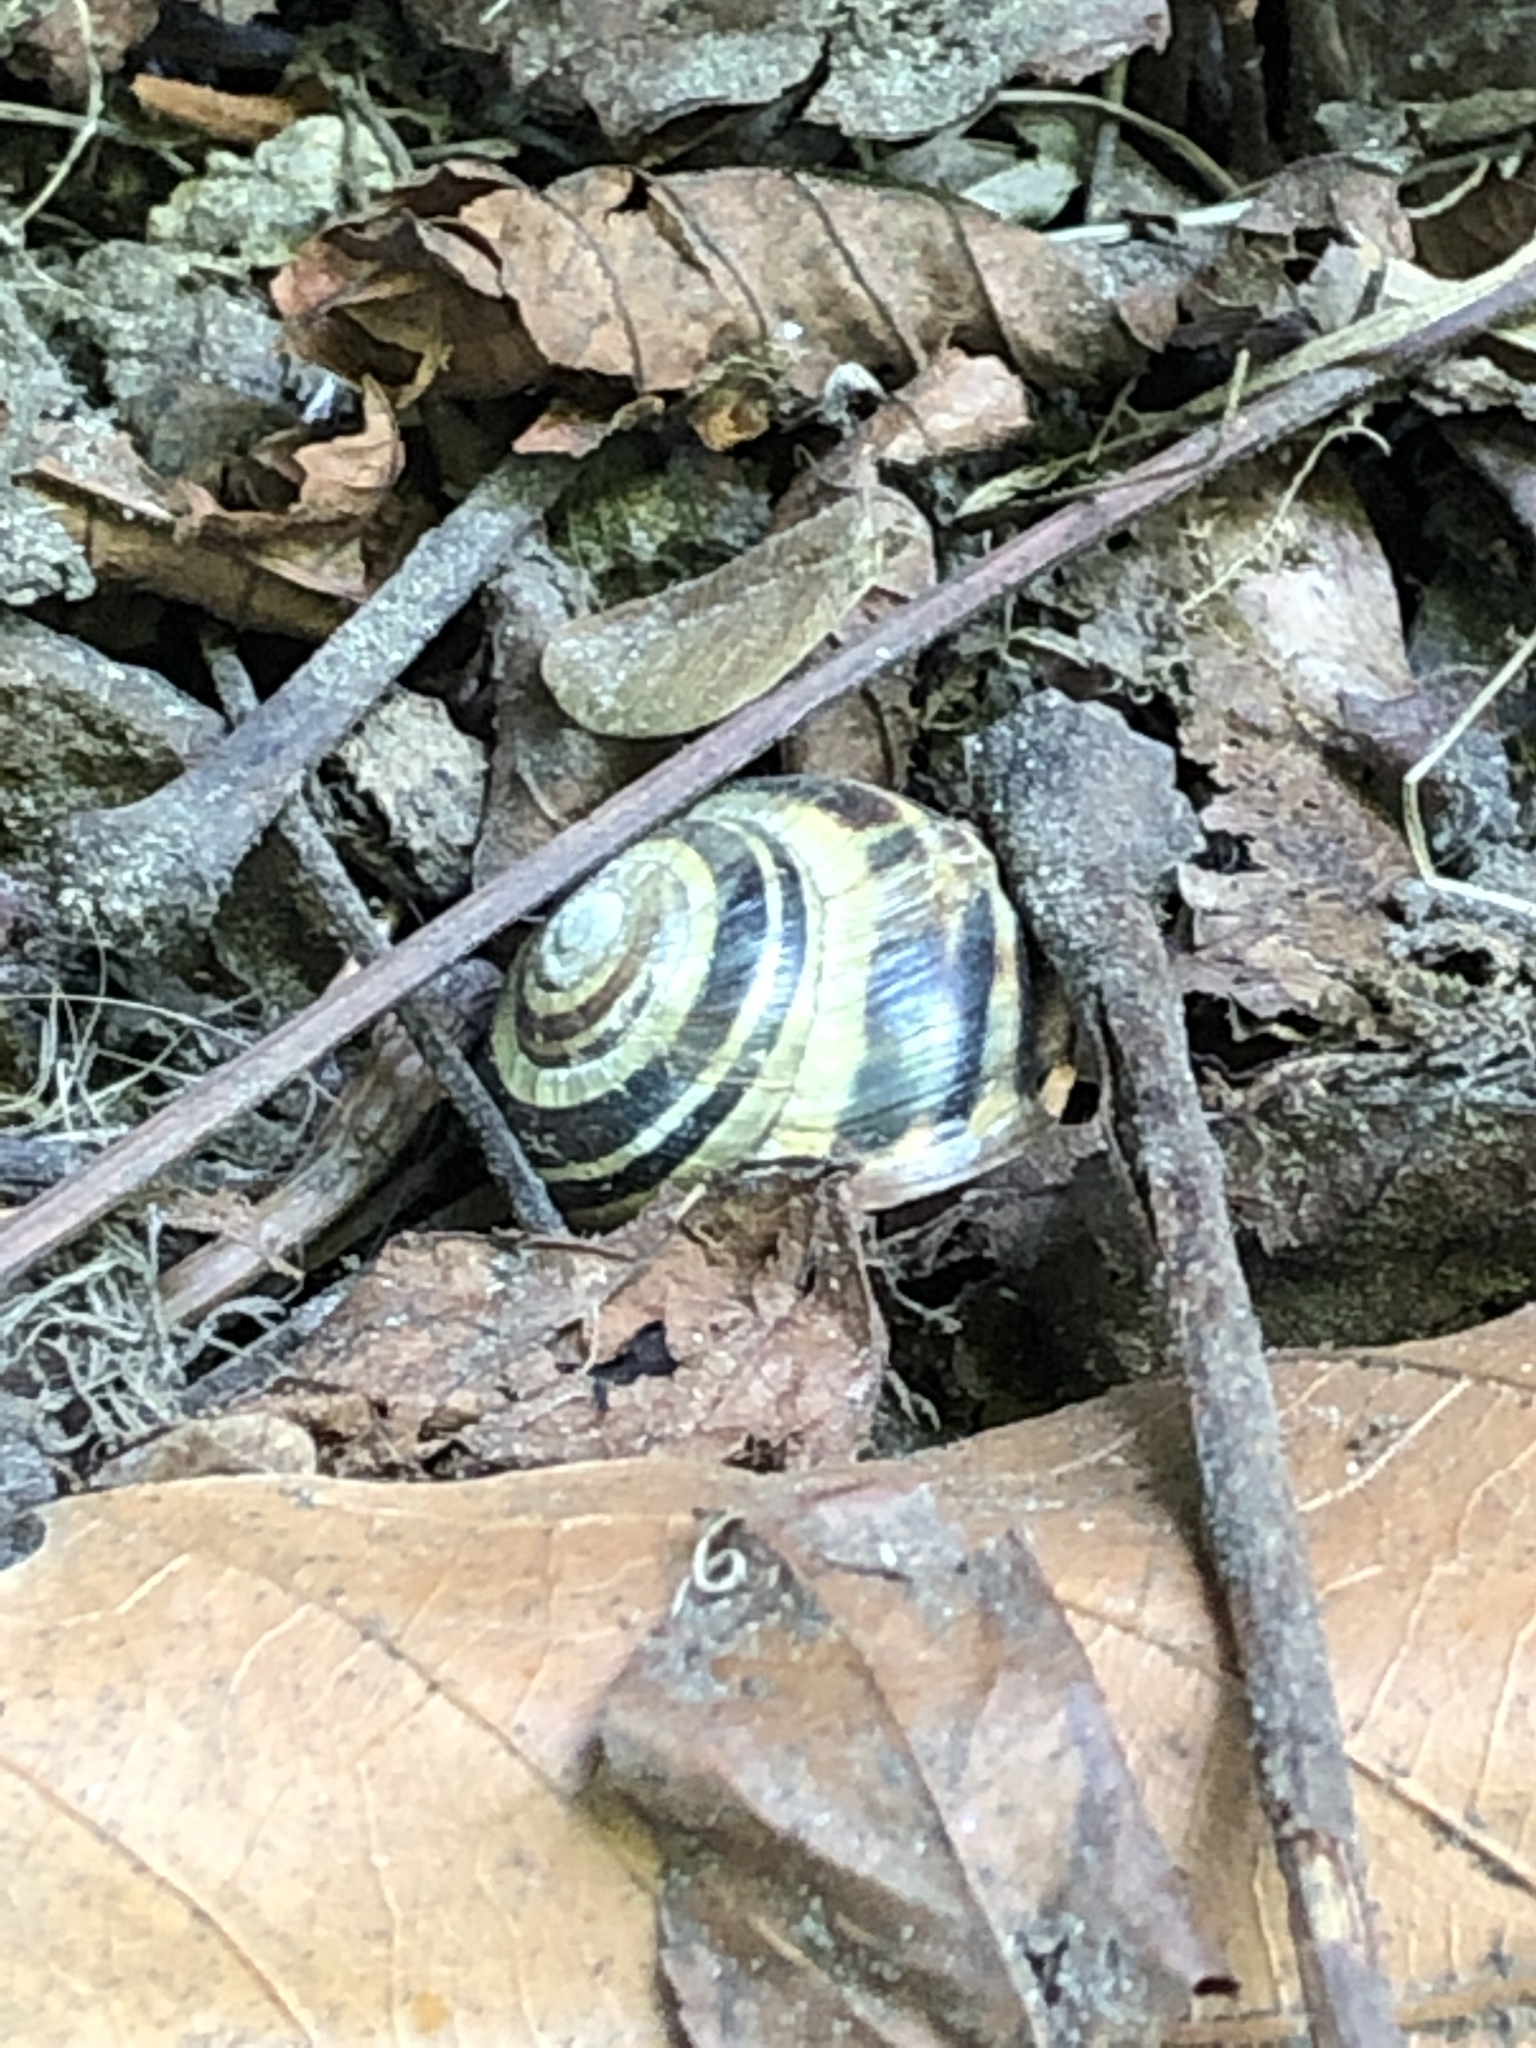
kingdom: Animalia
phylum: Mollusca
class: Gastropoda
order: Stylommatophora
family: Helicidae
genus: Cepaea
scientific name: Cepaea nemoralis
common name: Grovesnail
